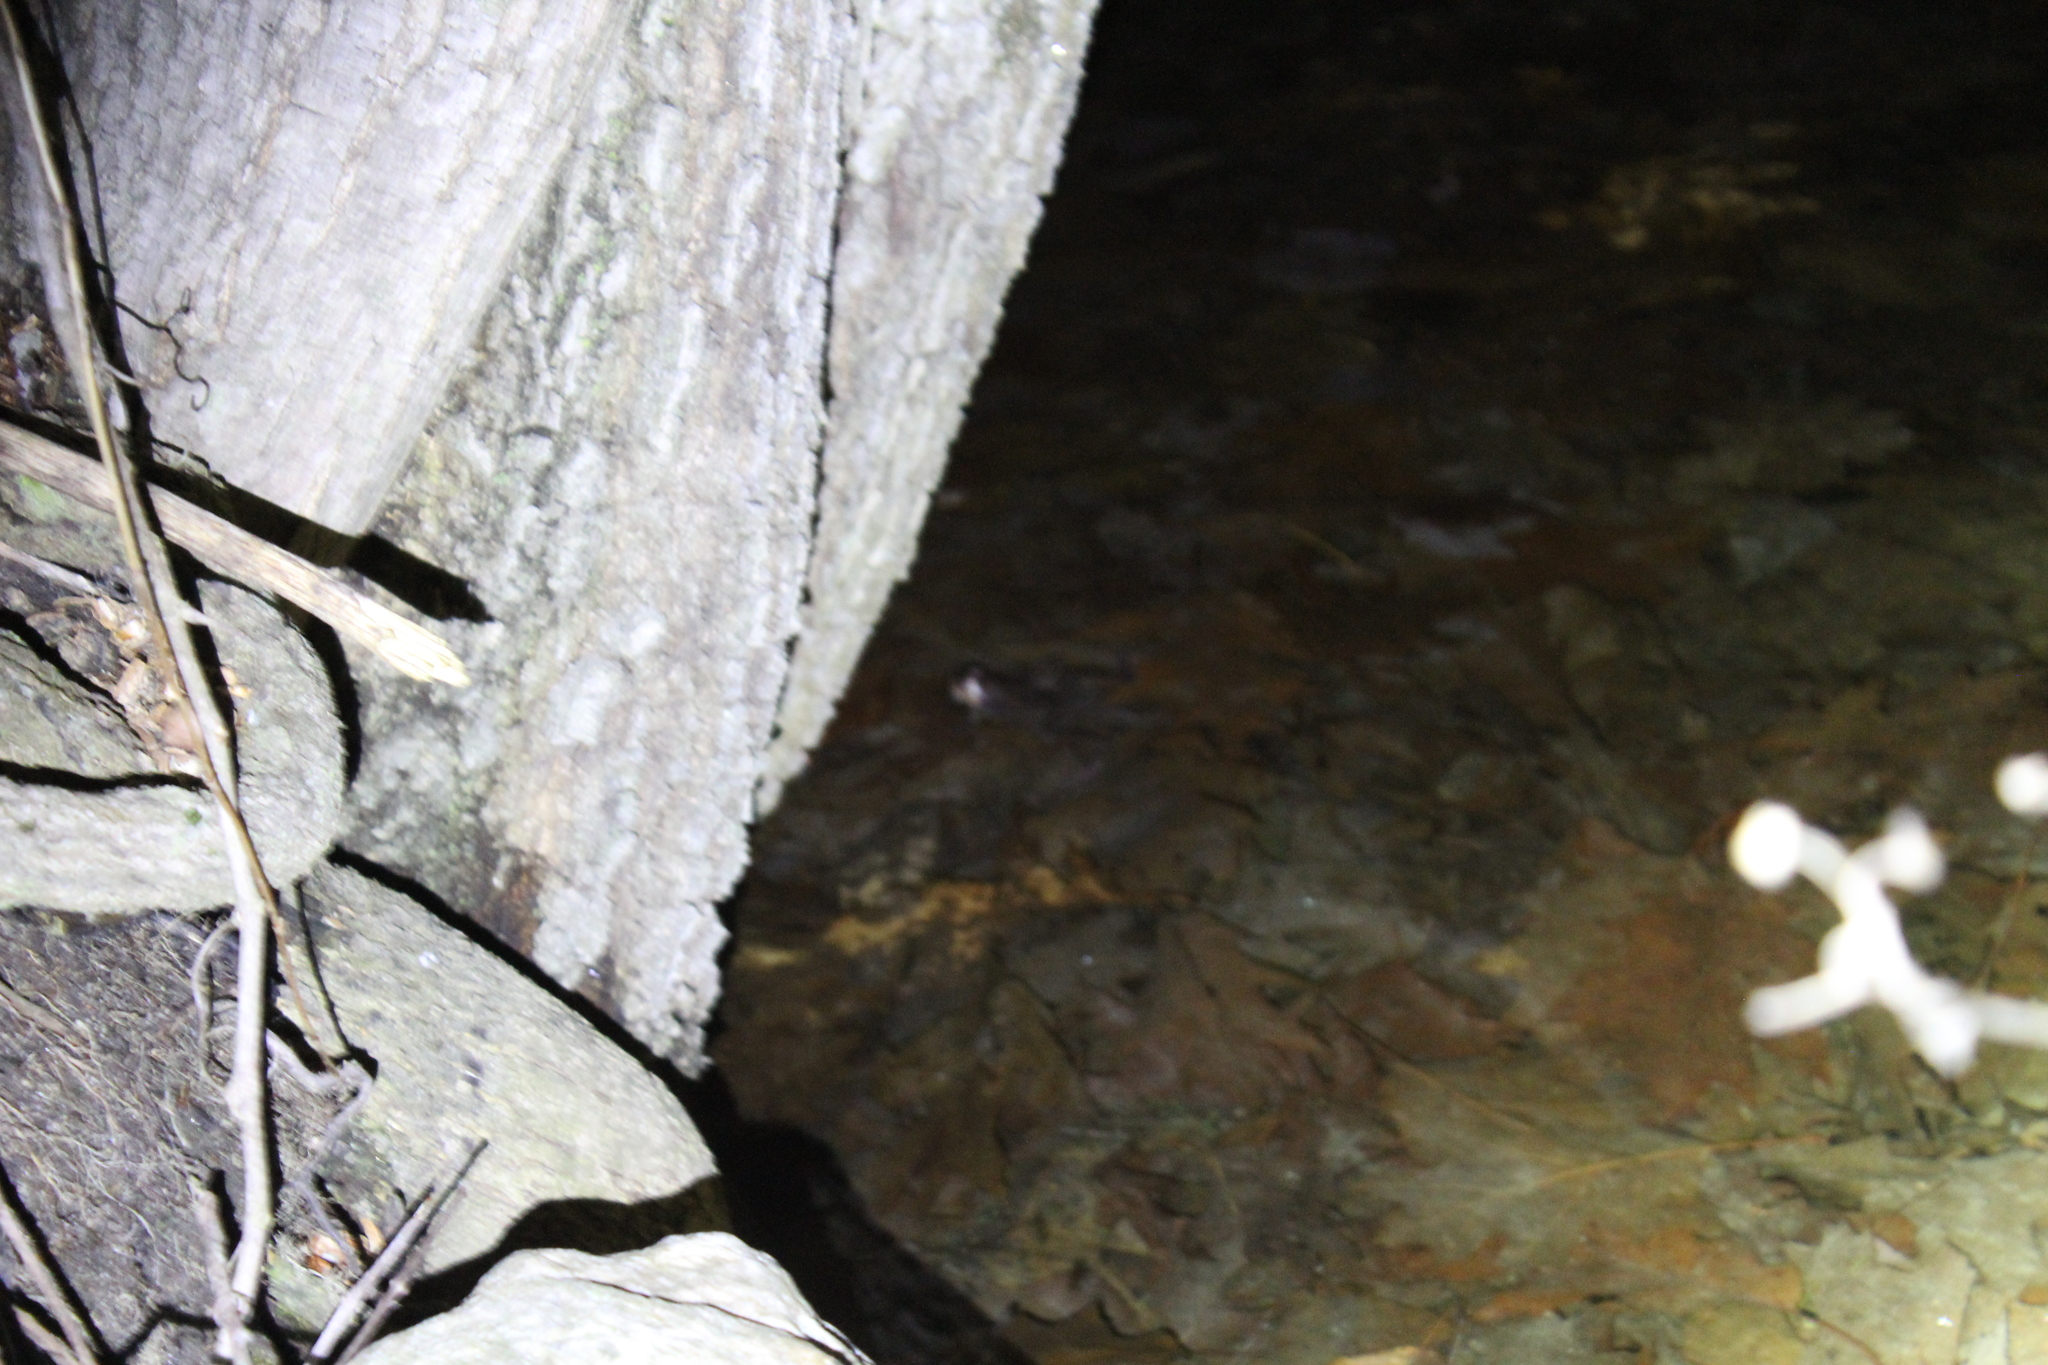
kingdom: Animalia
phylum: Chordata
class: Amphibia
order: Anura
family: Ranidae
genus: Lithobates
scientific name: Lithobates sylvaticus
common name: Wood frog
